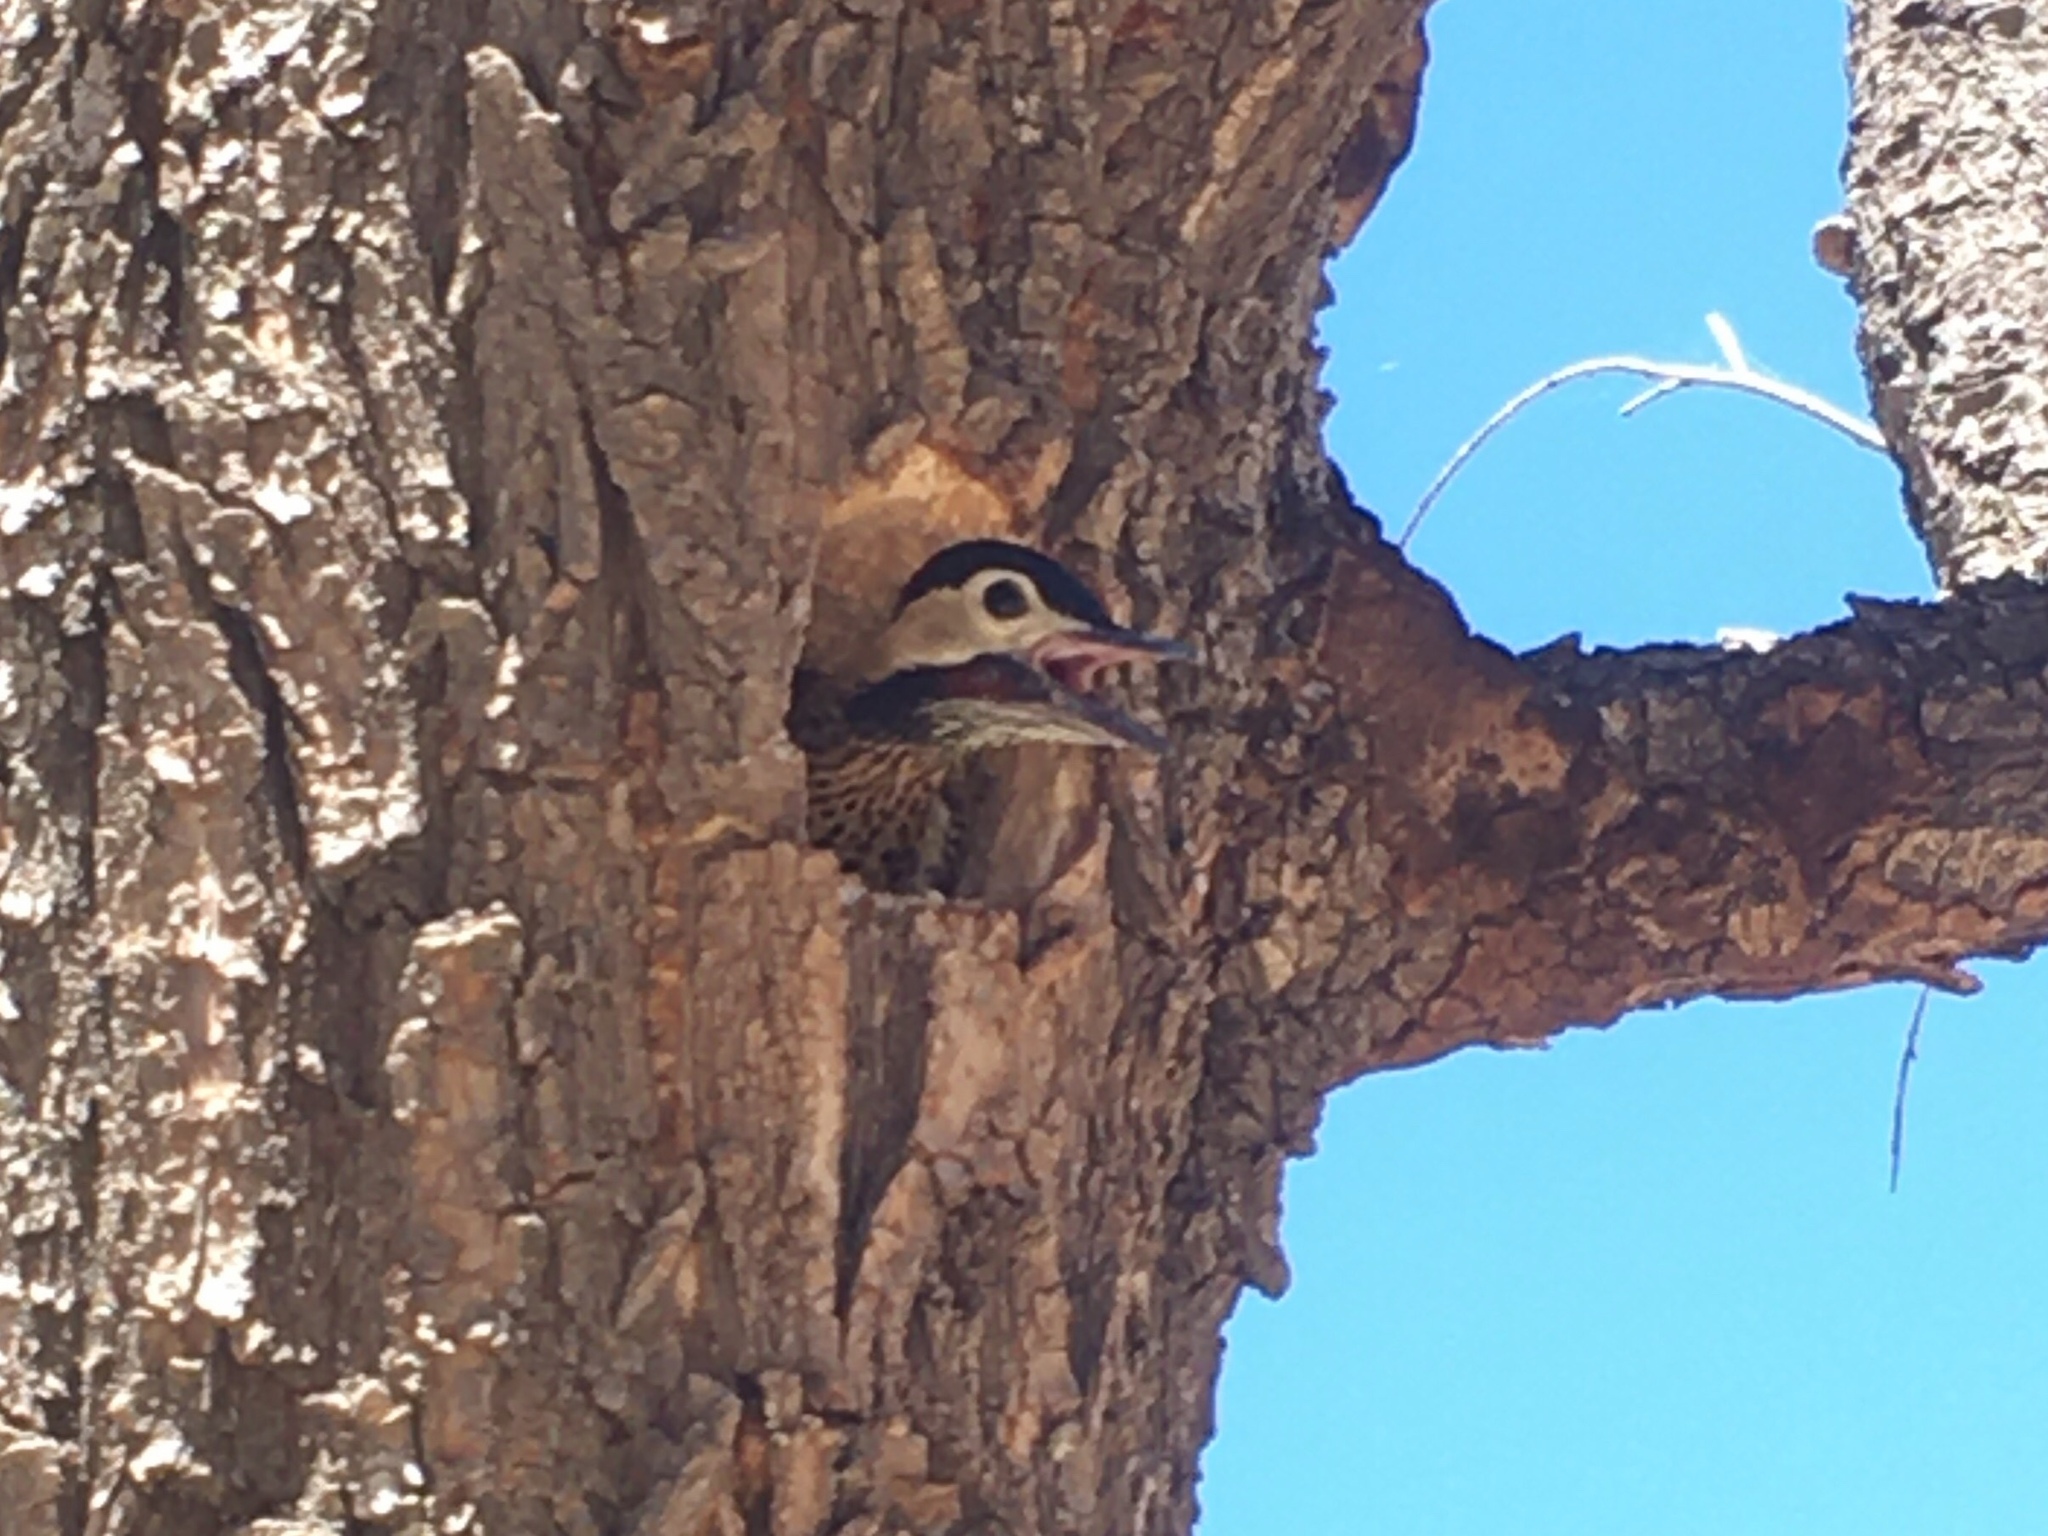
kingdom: Animalia
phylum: Chordata
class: Aves
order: Piciformes
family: Picidae
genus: Colaptes
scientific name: Colaptes melanochloros
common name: Green-barred woodpecker
